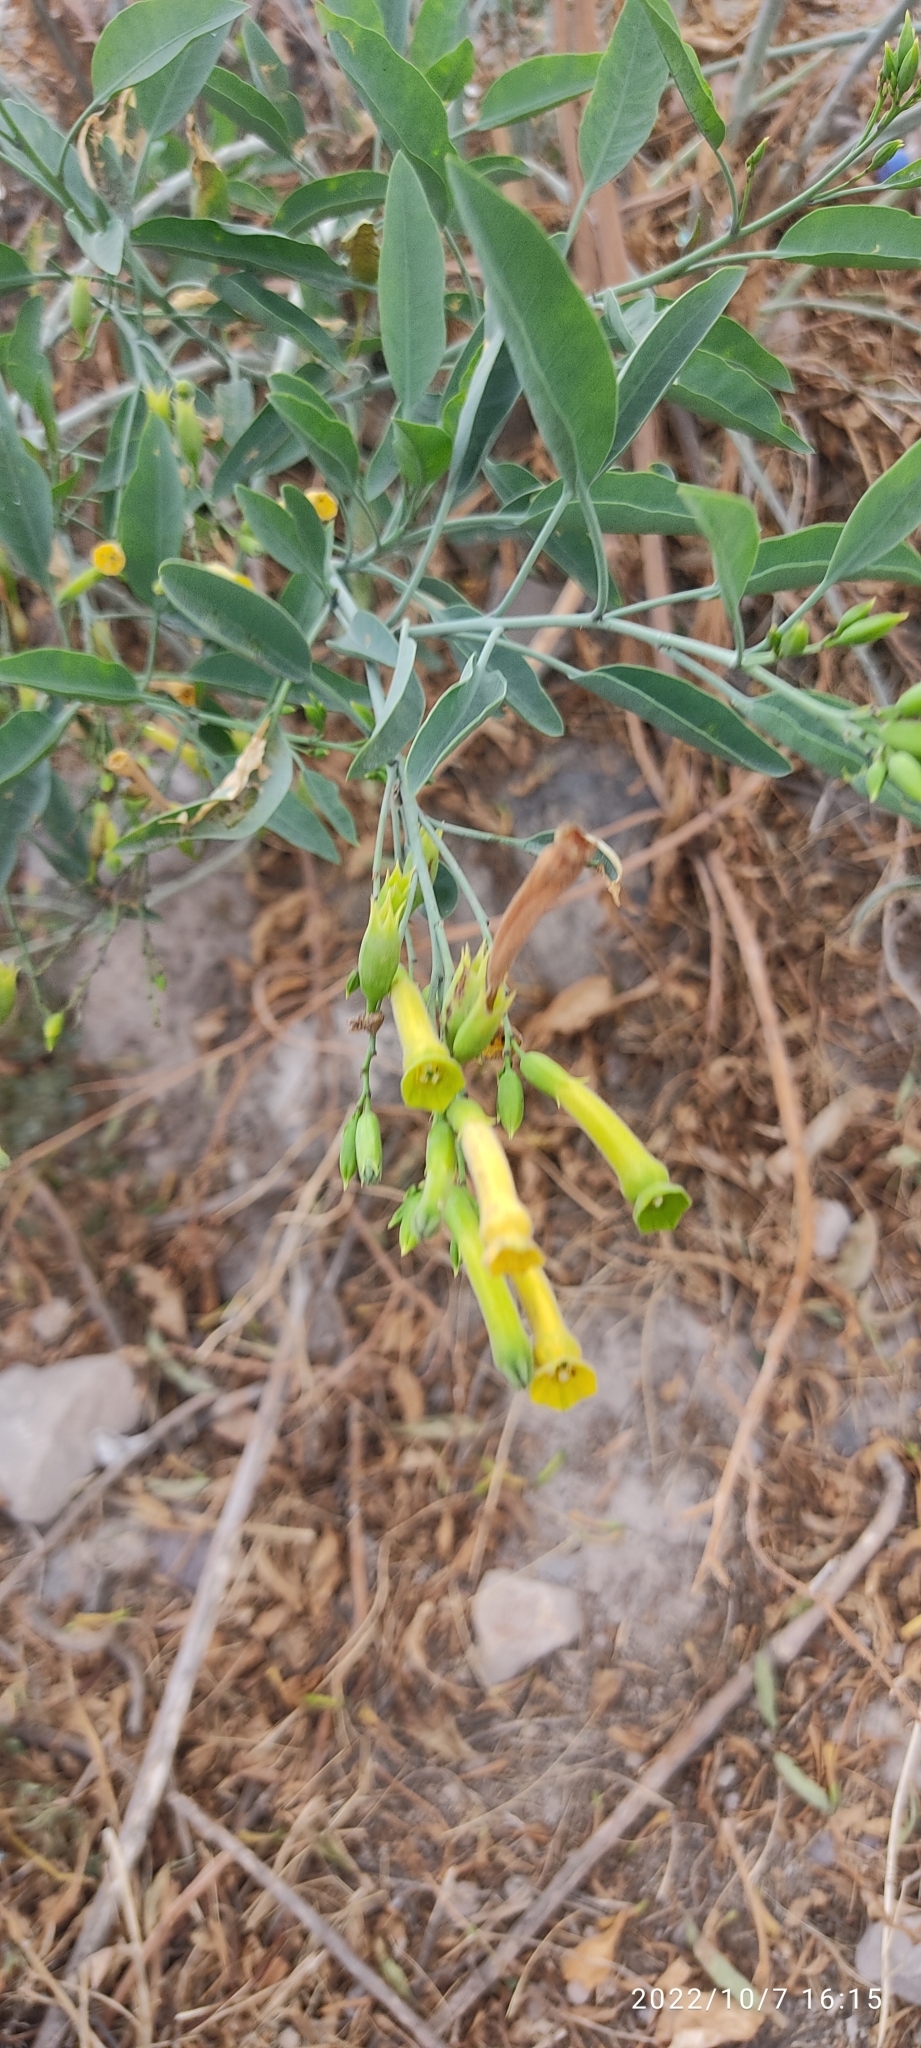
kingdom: Plantae
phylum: Tracheophyta
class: Magnoliopsida
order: Solanales
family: Solanaceae
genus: Nicotiana
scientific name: Nicotiana glauca
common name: Tree tobacco
